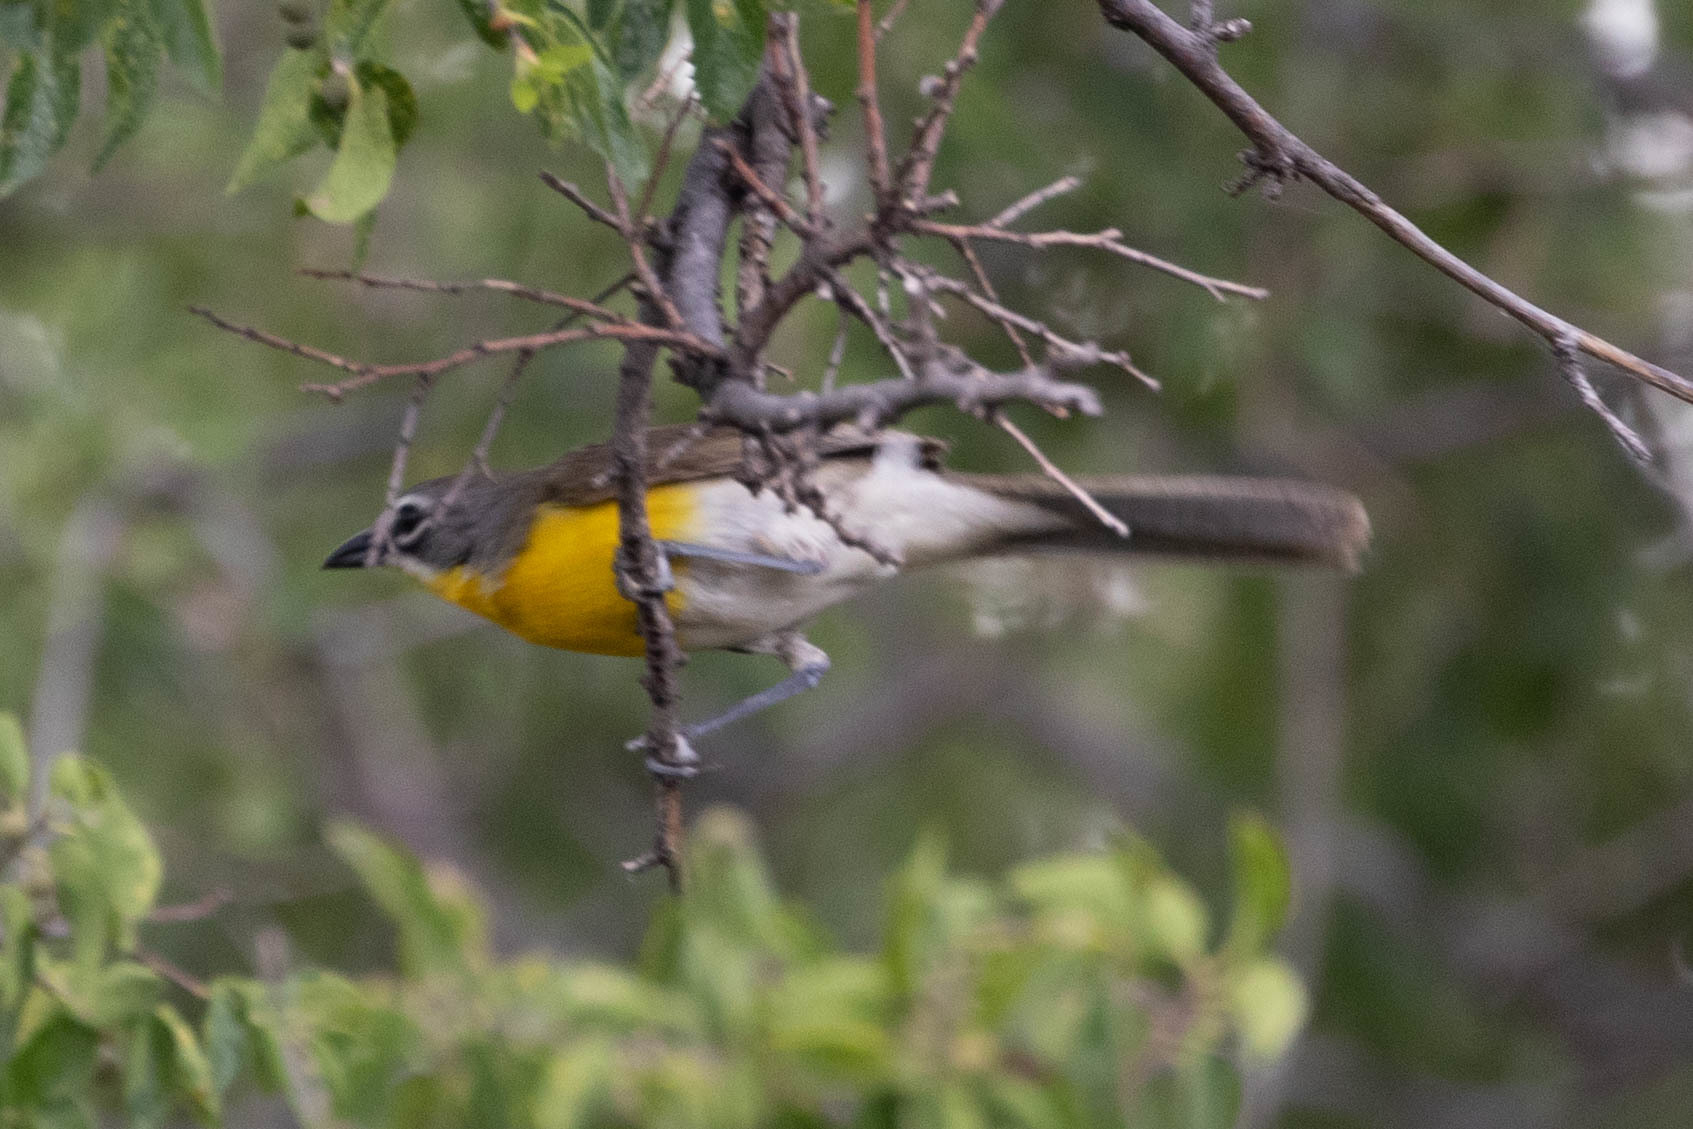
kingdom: Animalia
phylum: Chordata
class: Aves
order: Passeriformes
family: Parulidae
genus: Icteria
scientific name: Icteria virens
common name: Yellow-breasted chat
